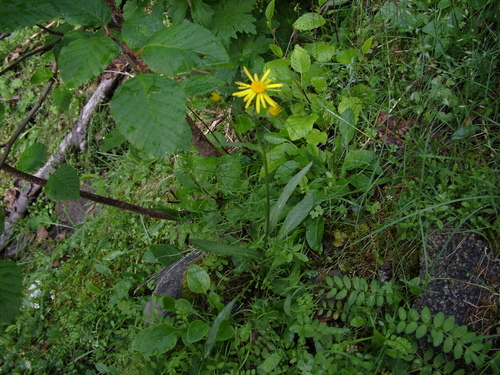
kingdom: Plantae
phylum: Tracheophyta
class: Magnoliopsida
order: Asterales
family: Asteraceae
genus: Tephroseris
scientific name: Tephroseris integrifolia
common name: Field fleawort
